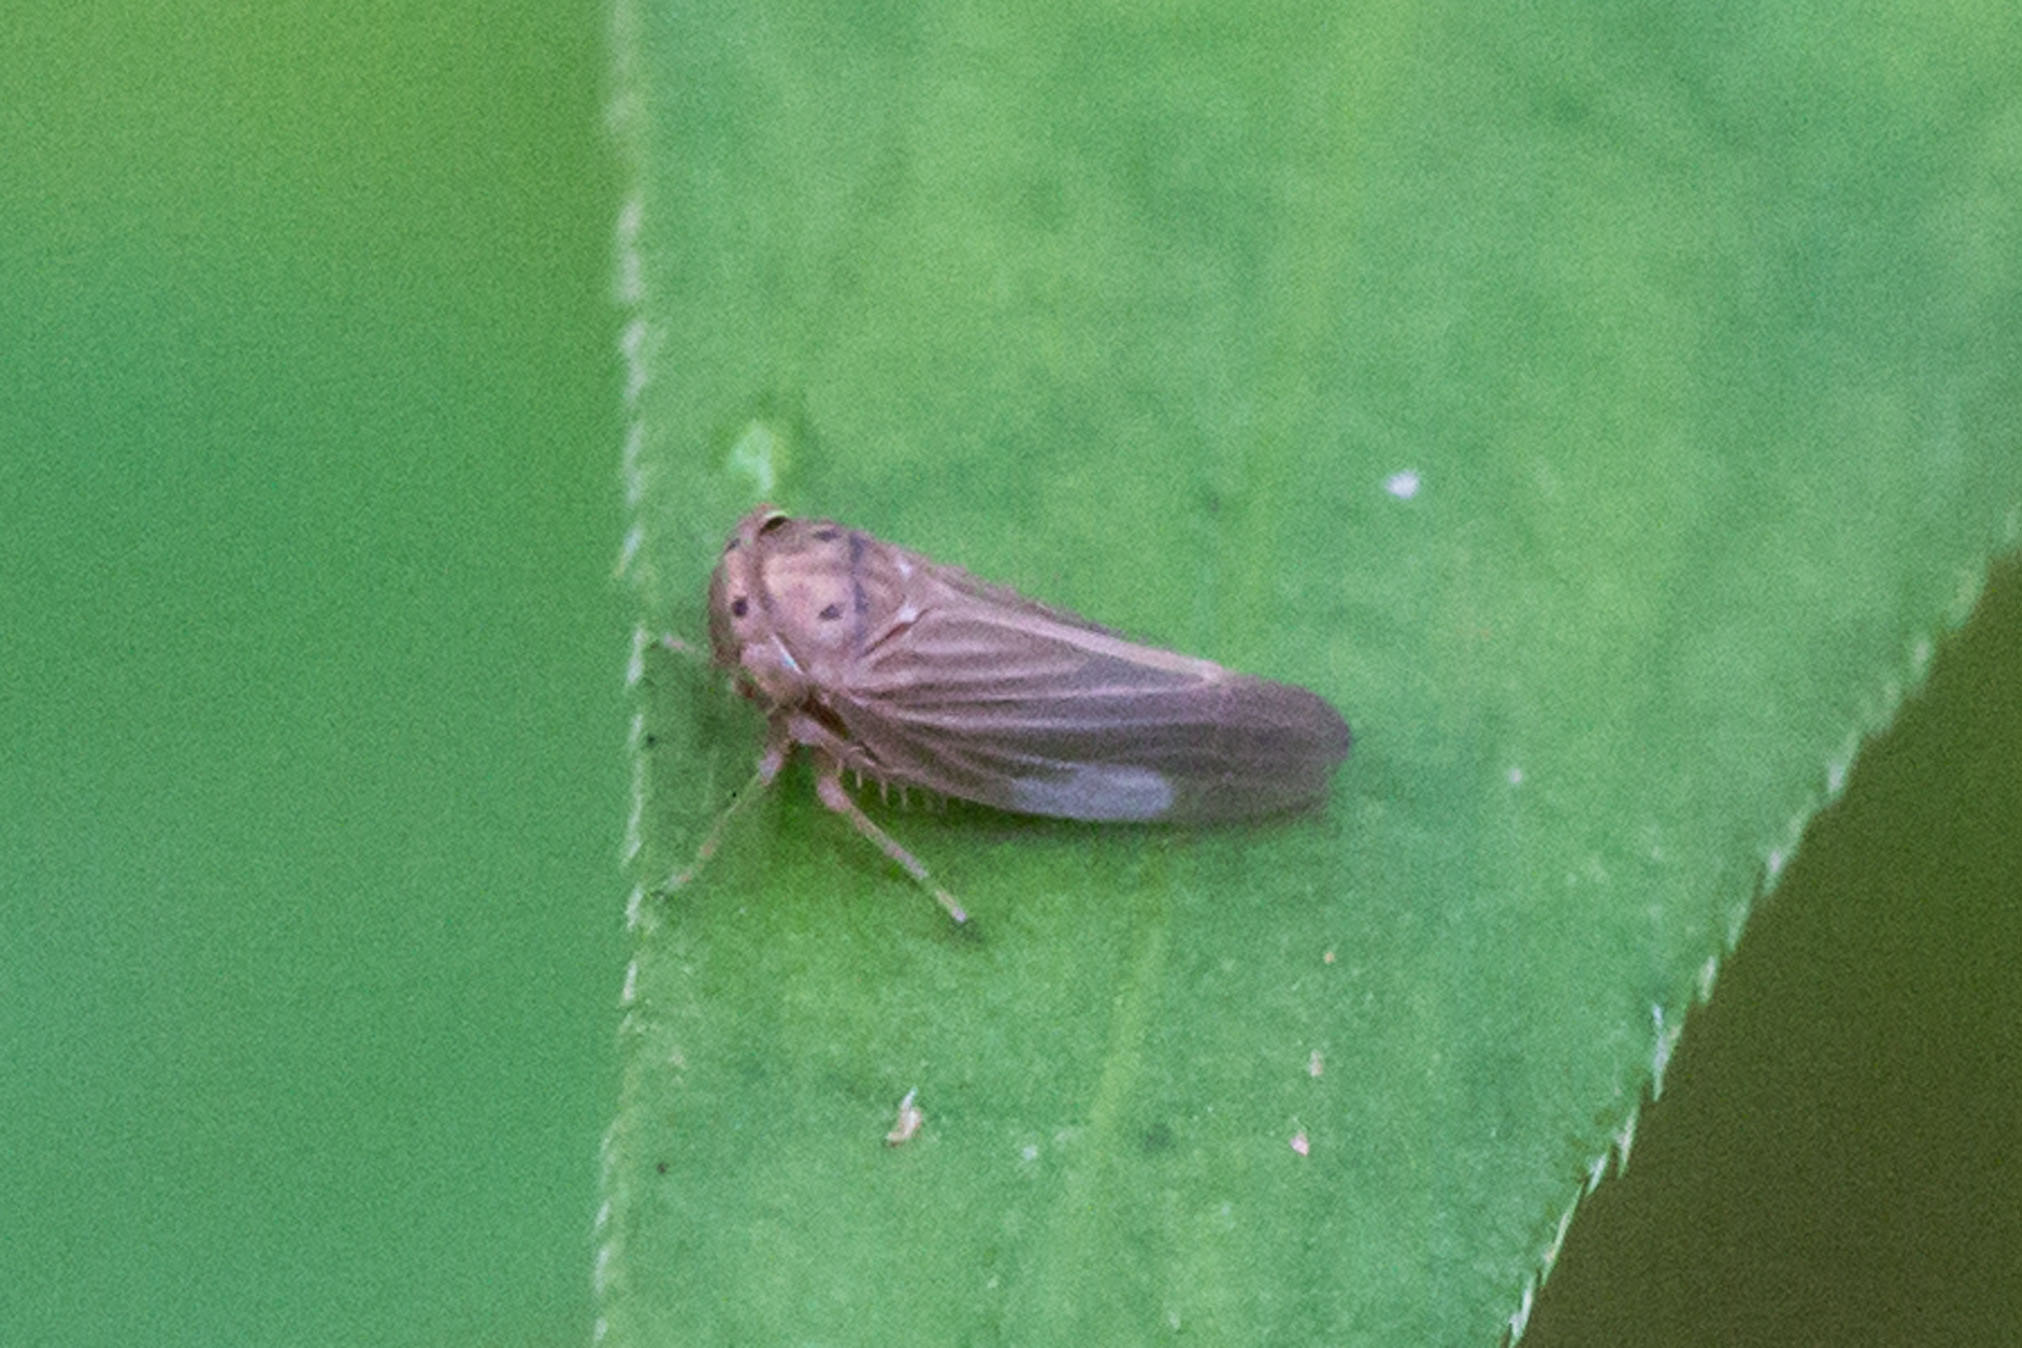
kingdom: Animalia
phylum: Arthropoda
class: Insecta
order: Hemiptera
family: Cicadellidae
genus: Agallia
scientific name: Agallia constricta
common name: The constricted leafhopper
